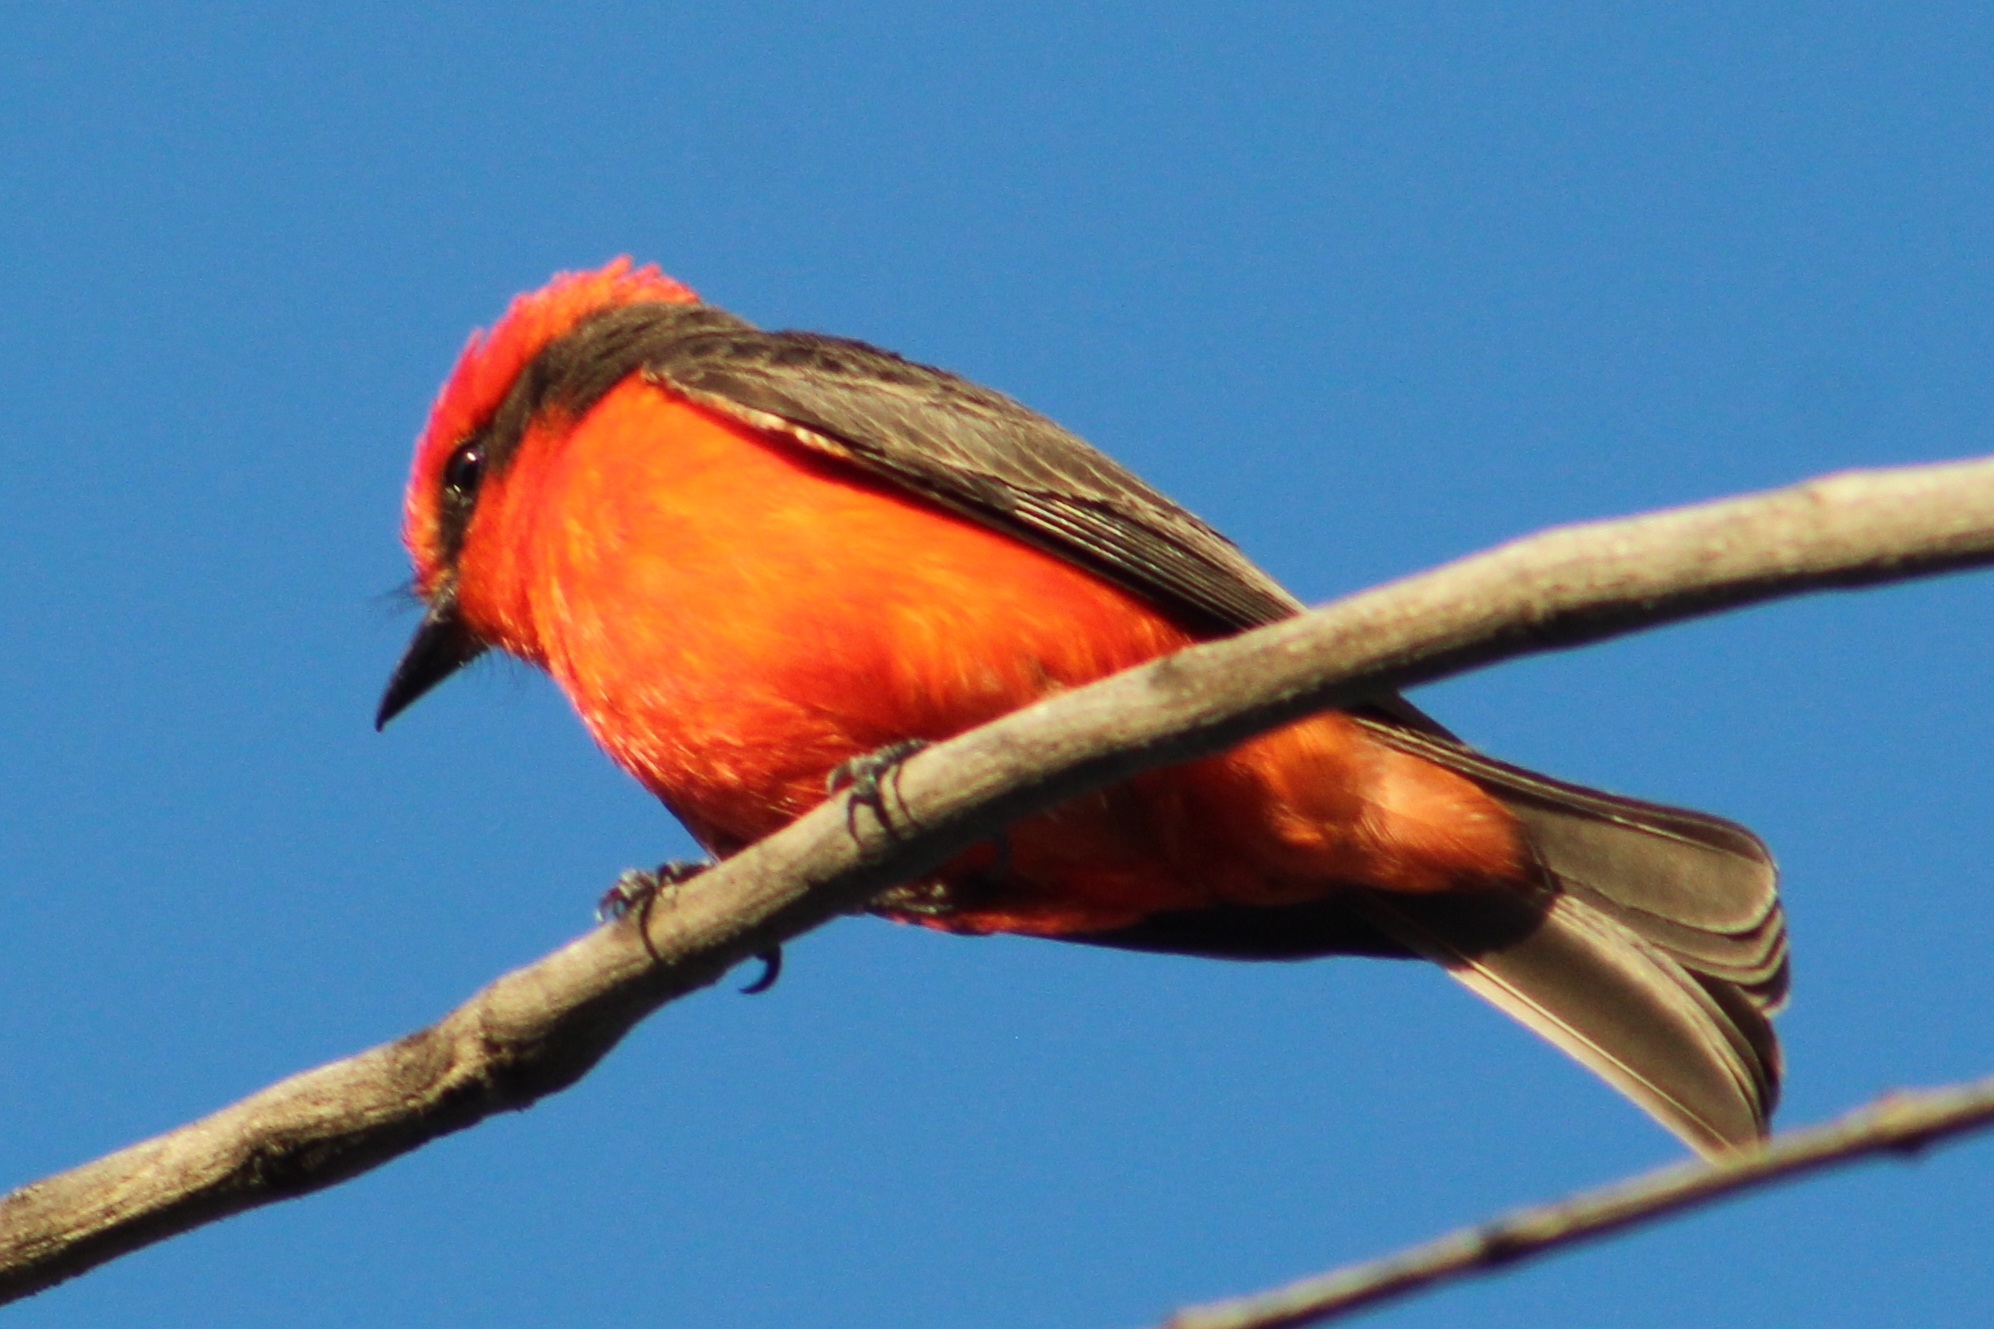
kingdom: Animalia
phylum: Chordata
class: Aves
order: Passeriformes
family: Tyrannidae
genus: Pyrocephalus
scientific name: Pyrocephalus rubinus
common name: Vermilion flycatcher
